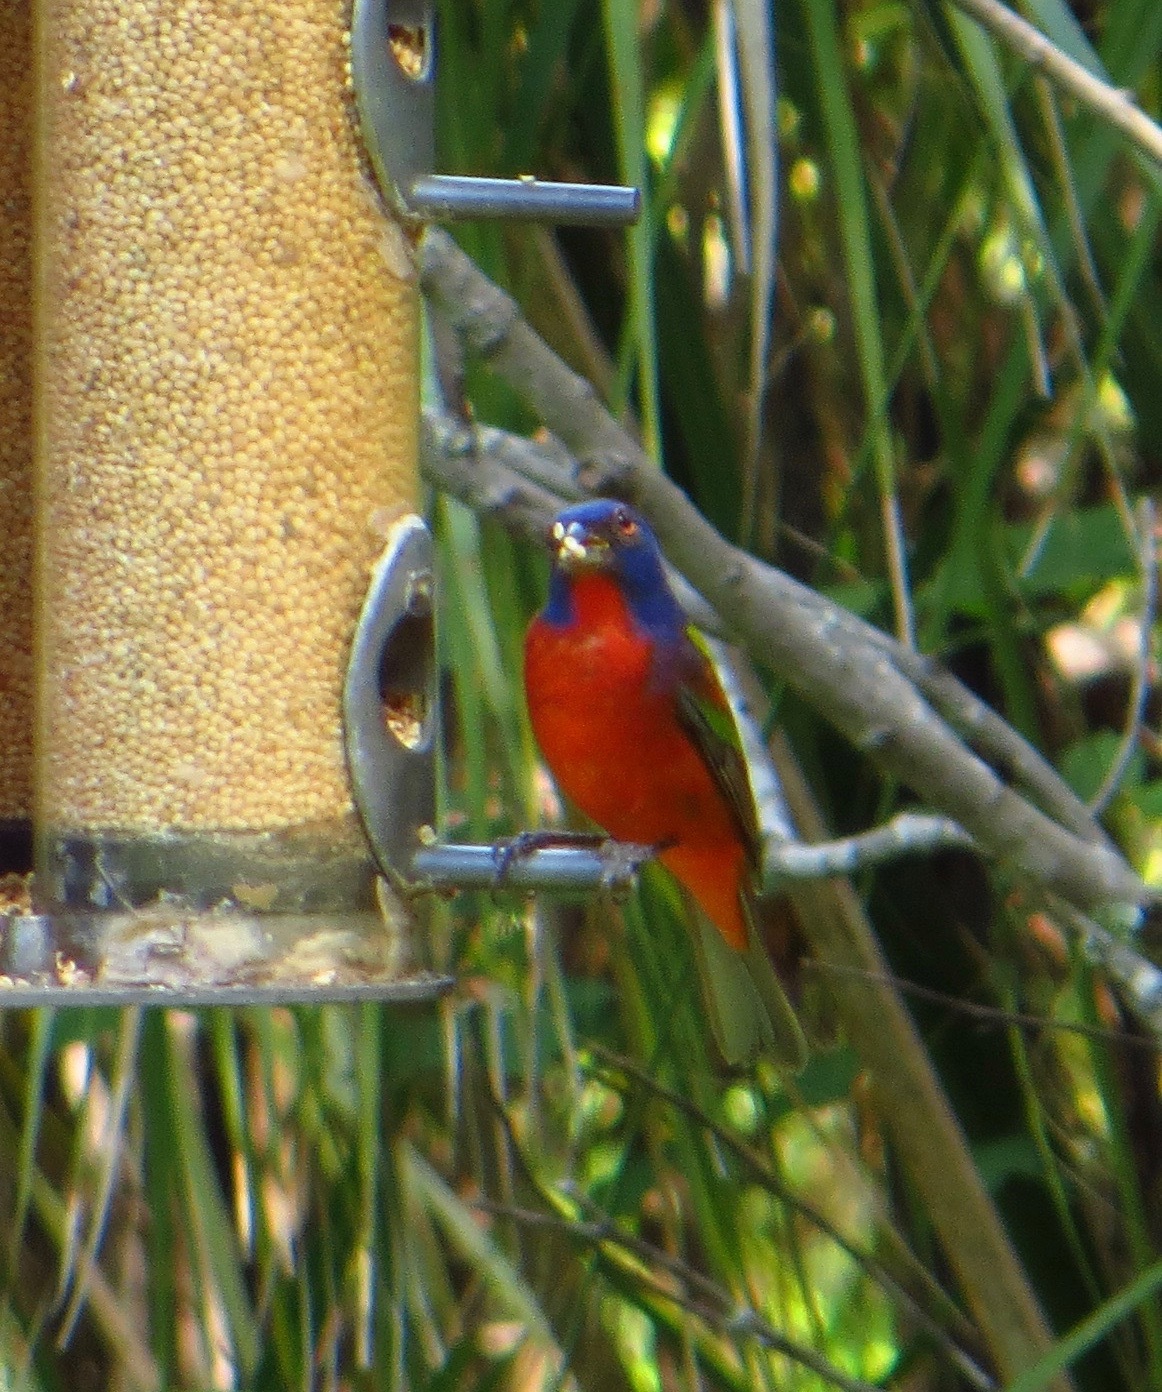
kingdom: Animalia
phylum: Chordata
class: Aves
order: Passeriformes
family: Cardinalidae
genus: Passerina
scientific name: Passerina ciris
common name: Painted bunting
